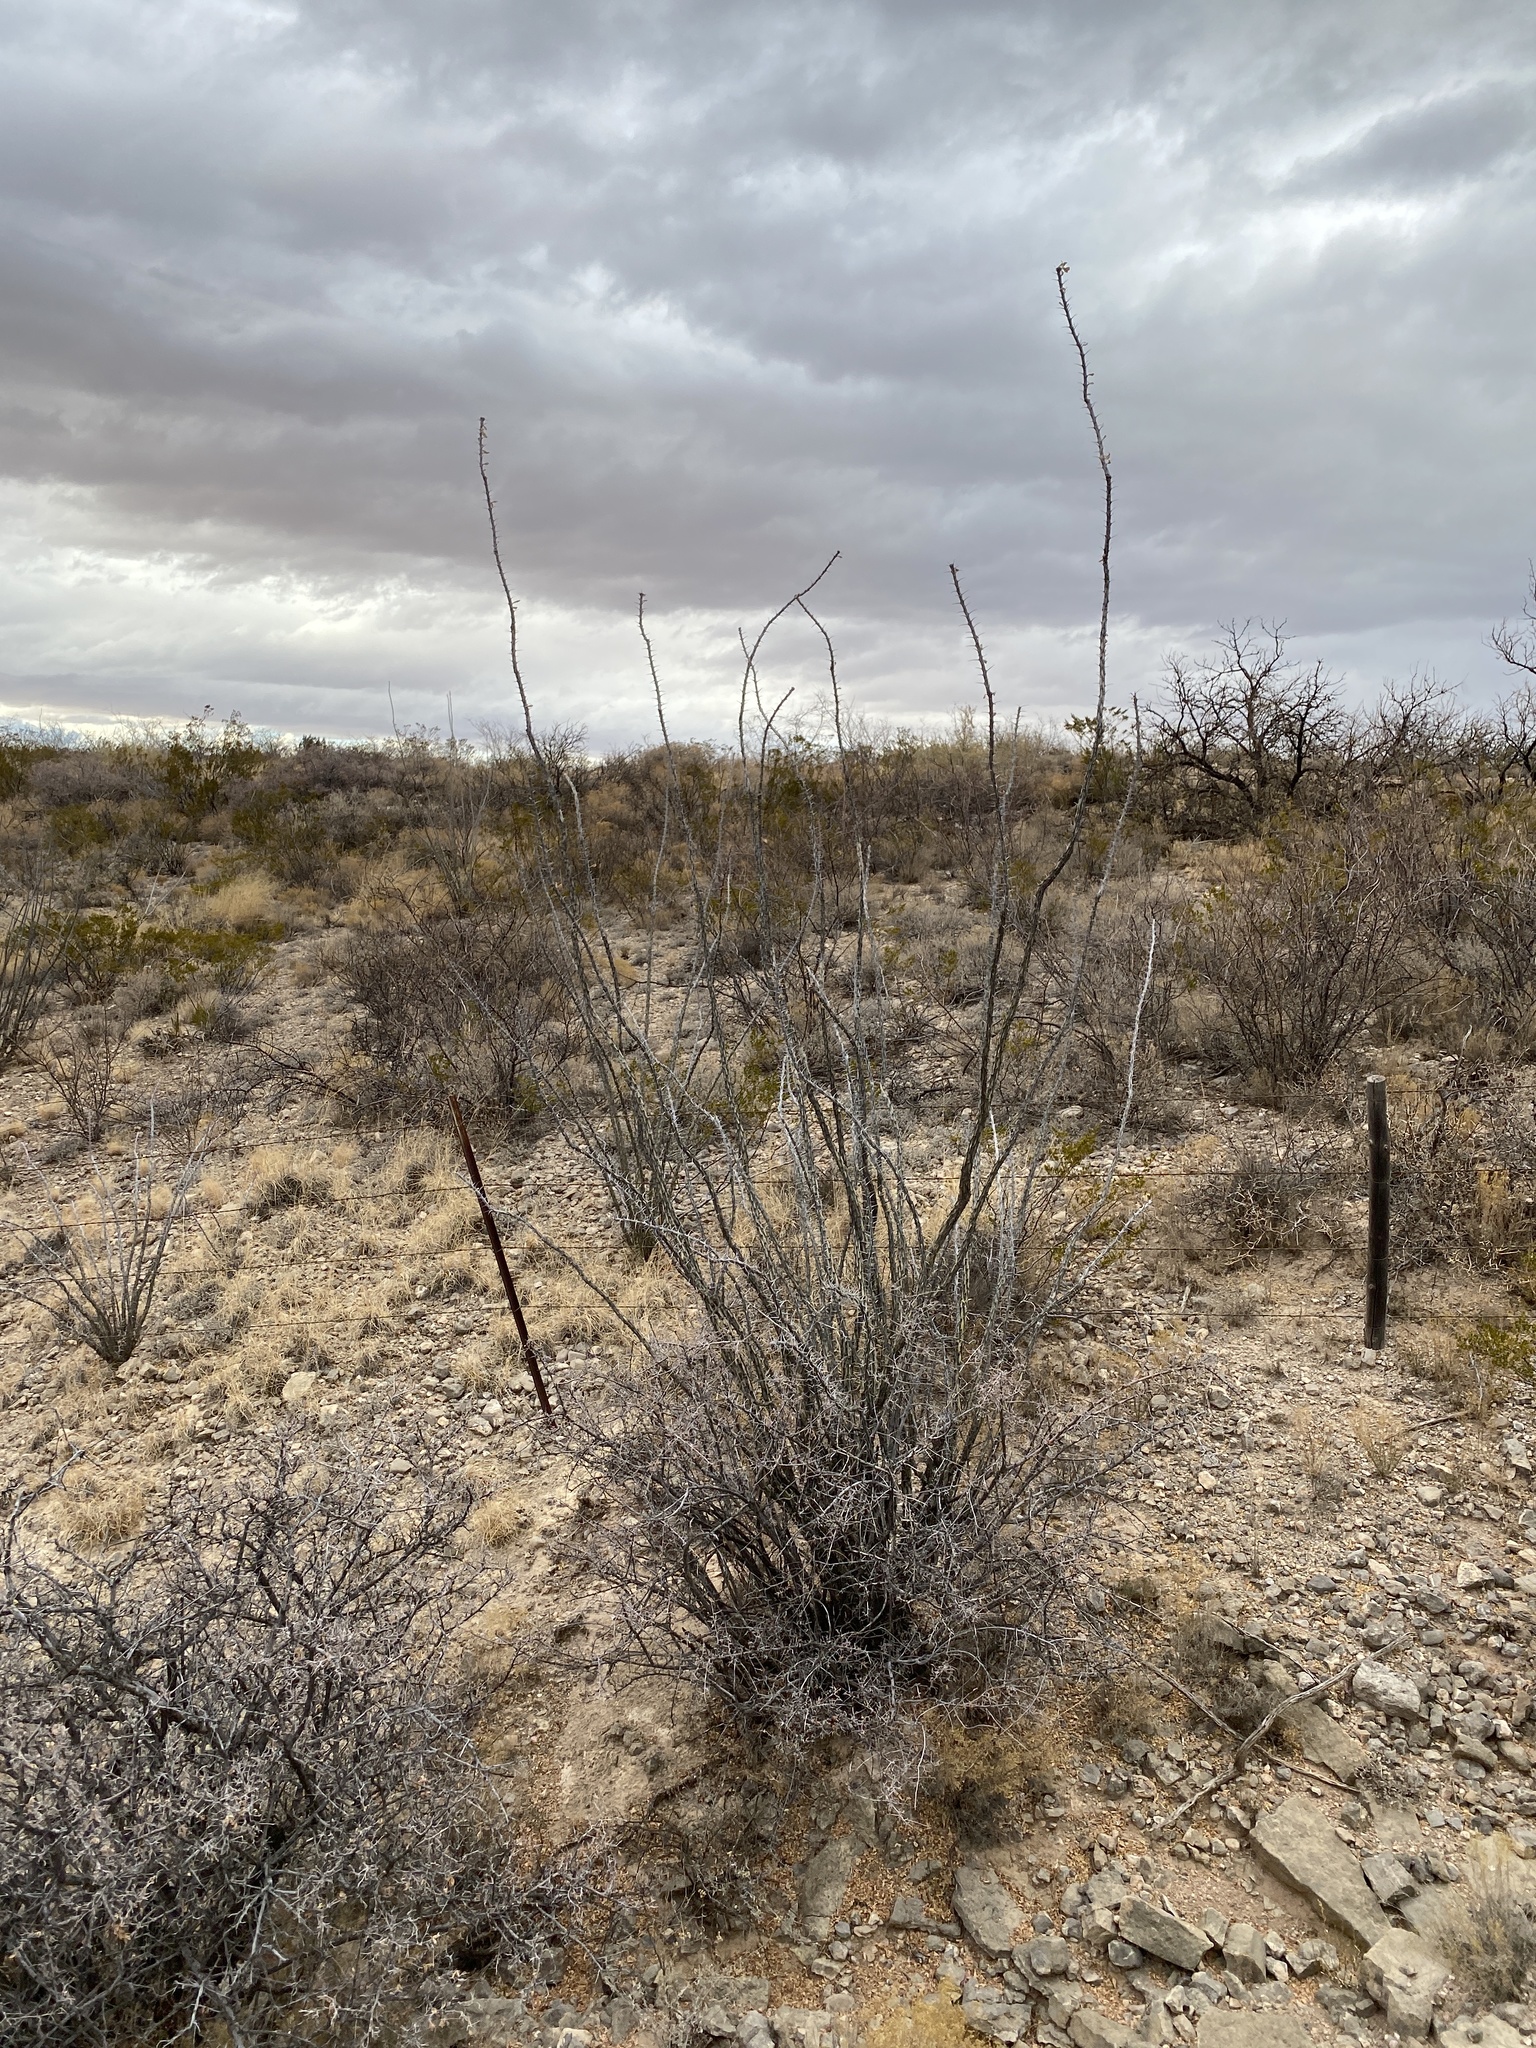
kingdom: Plantae
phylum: Tracheophyta
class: Magnoliopsida
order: Ericales
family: Fouquieriaceae
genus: Fouquieria
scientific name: Fouquieria splendens
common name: Vine-cactus
